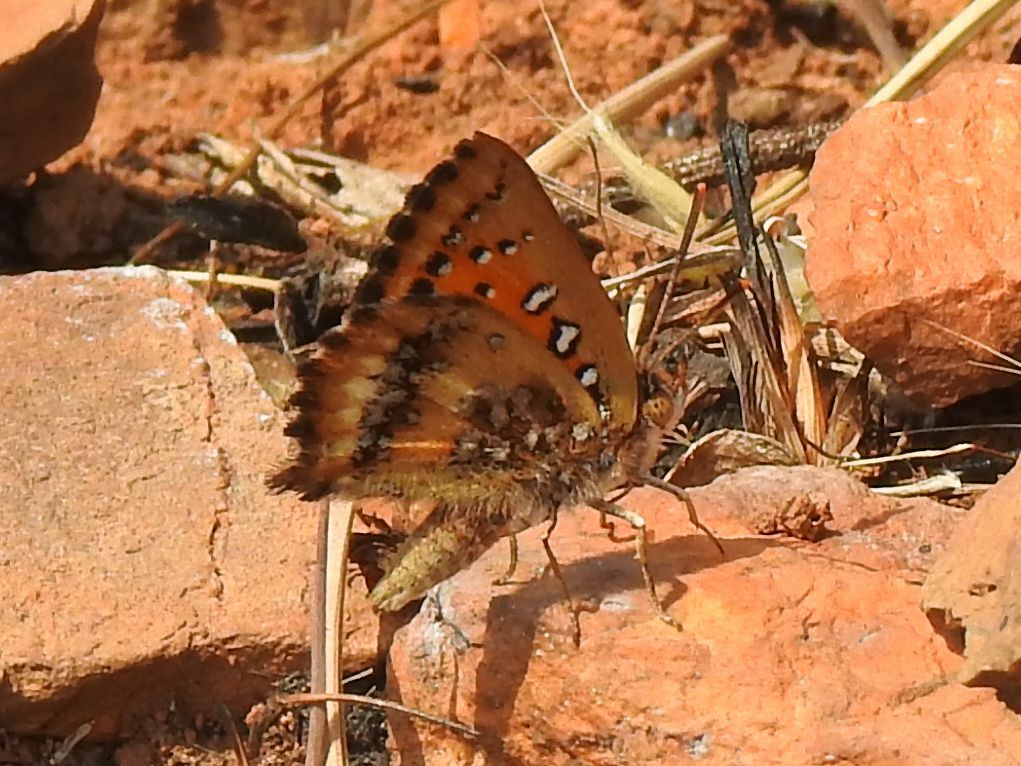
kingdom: Animalia
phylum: Arthropoda
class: Insecta
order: Lepidoptera
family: Lycaenidae
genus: Aloeides
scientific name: Aloeides molomo
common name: Mottled russet
